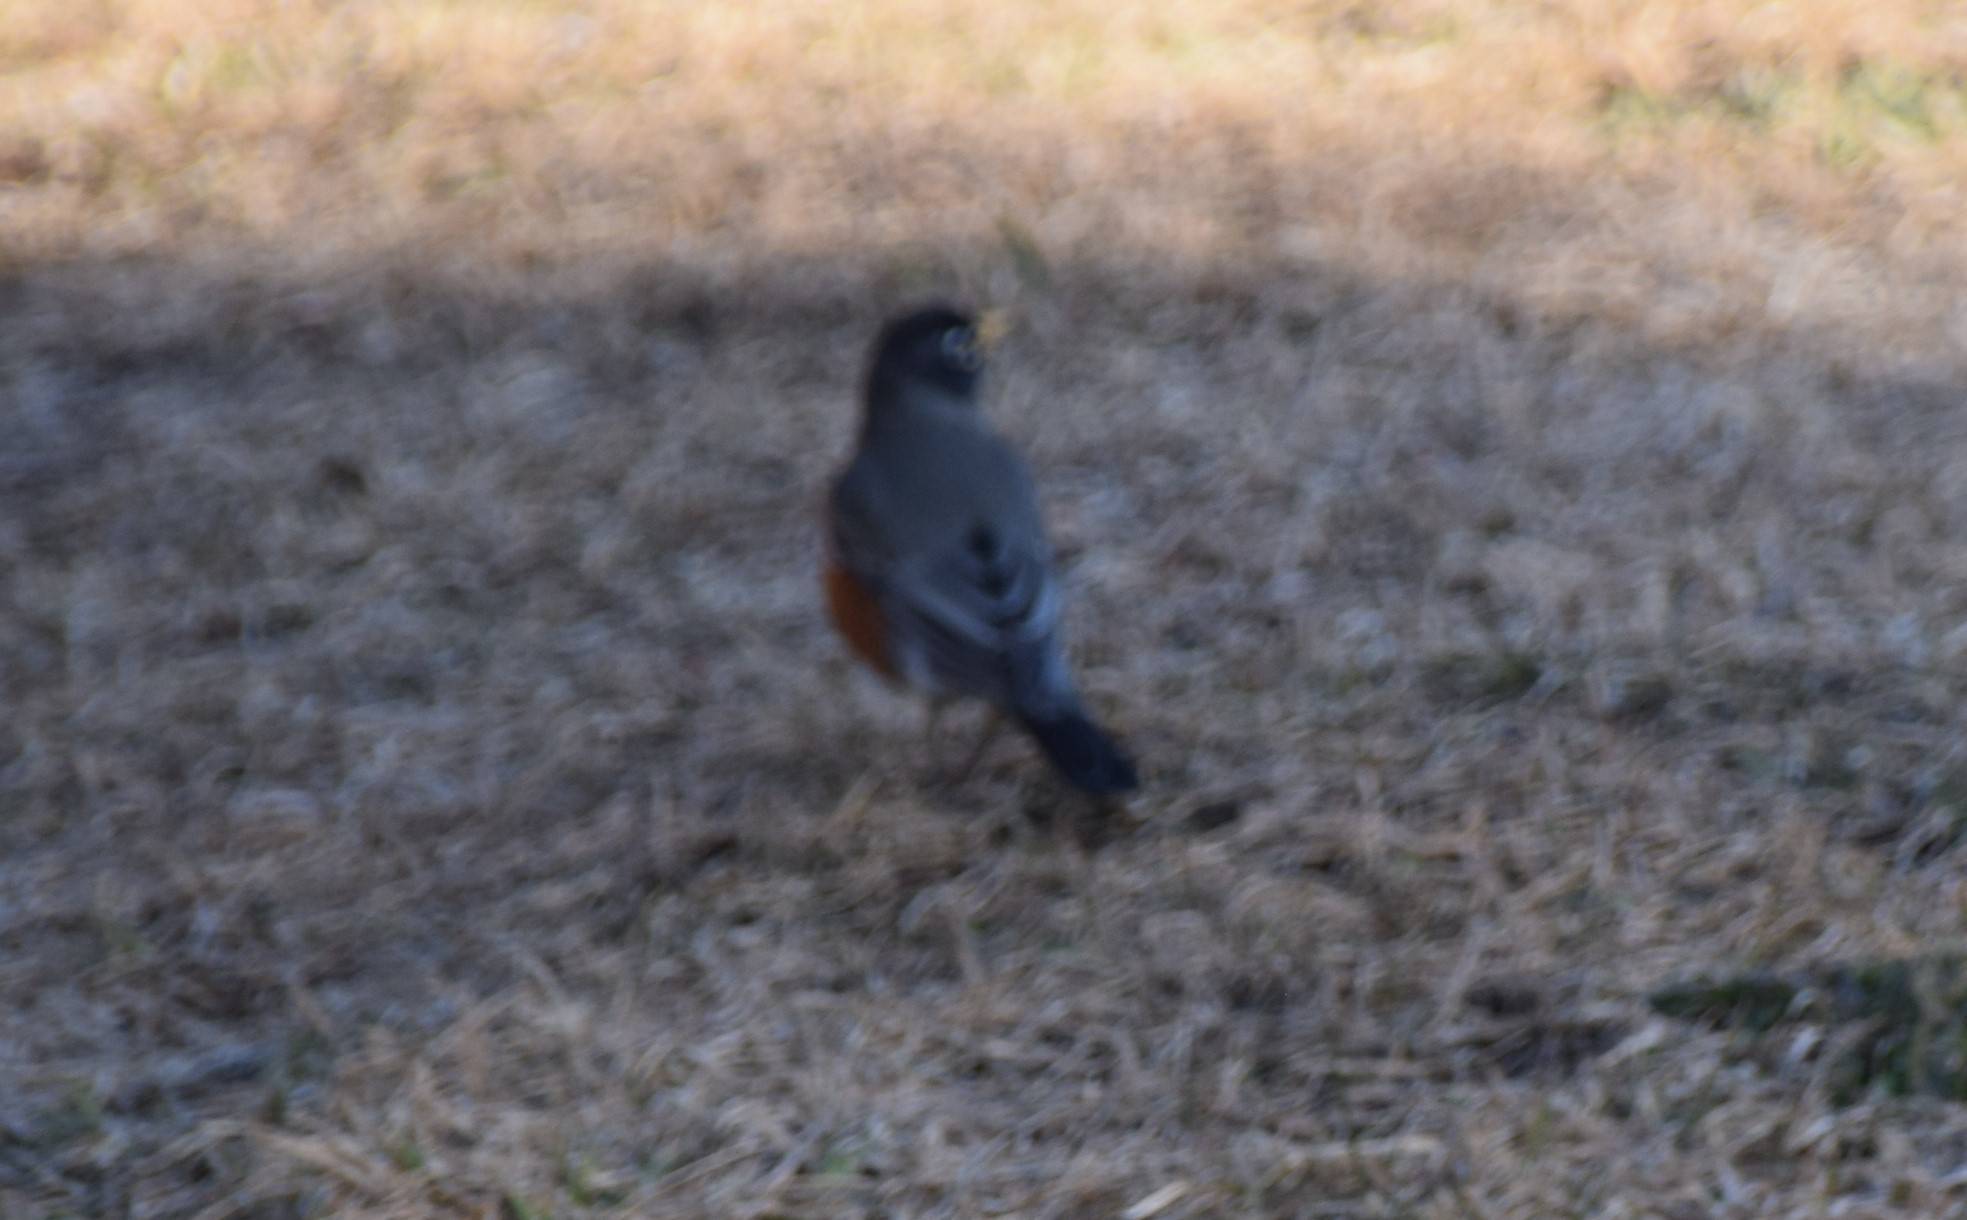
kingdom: Animalia
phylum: Chordata
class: Aves
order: Passeriformes
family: Turdidae
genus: Turdus
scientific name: Turdus migratorius
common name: American robin
